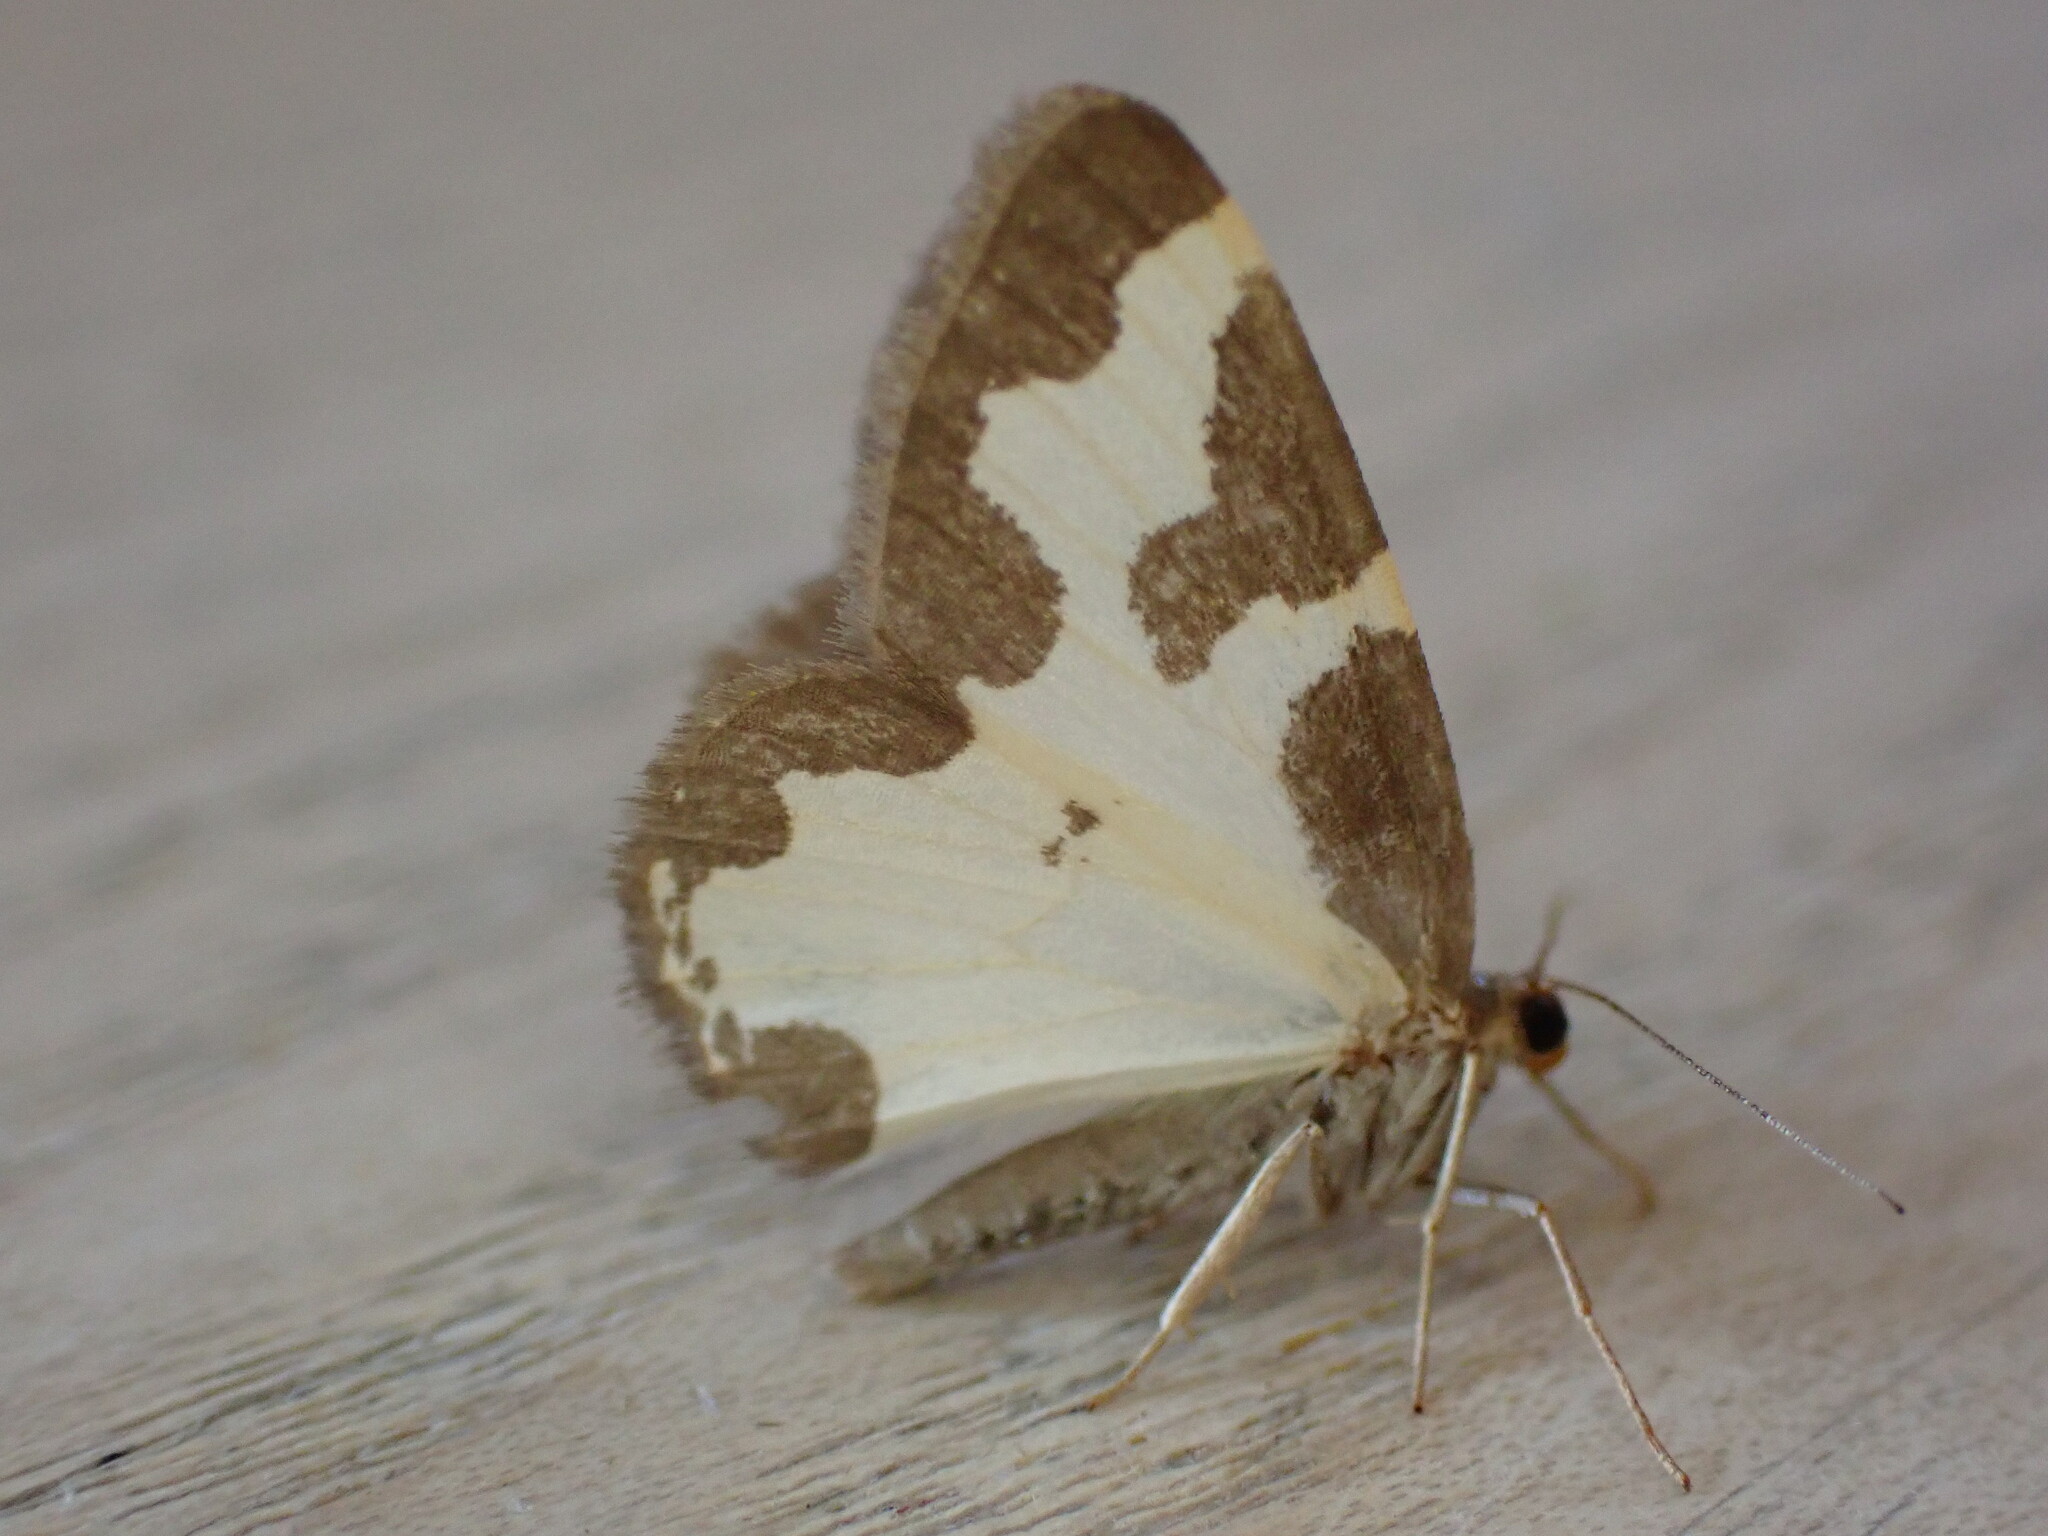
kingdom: Animalia
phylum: Arthropoda
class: Insecta
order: Lepidoptera
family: Geometridae
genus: Lomaspilis
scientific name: Lomaspilis marginata
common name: Clouded border
